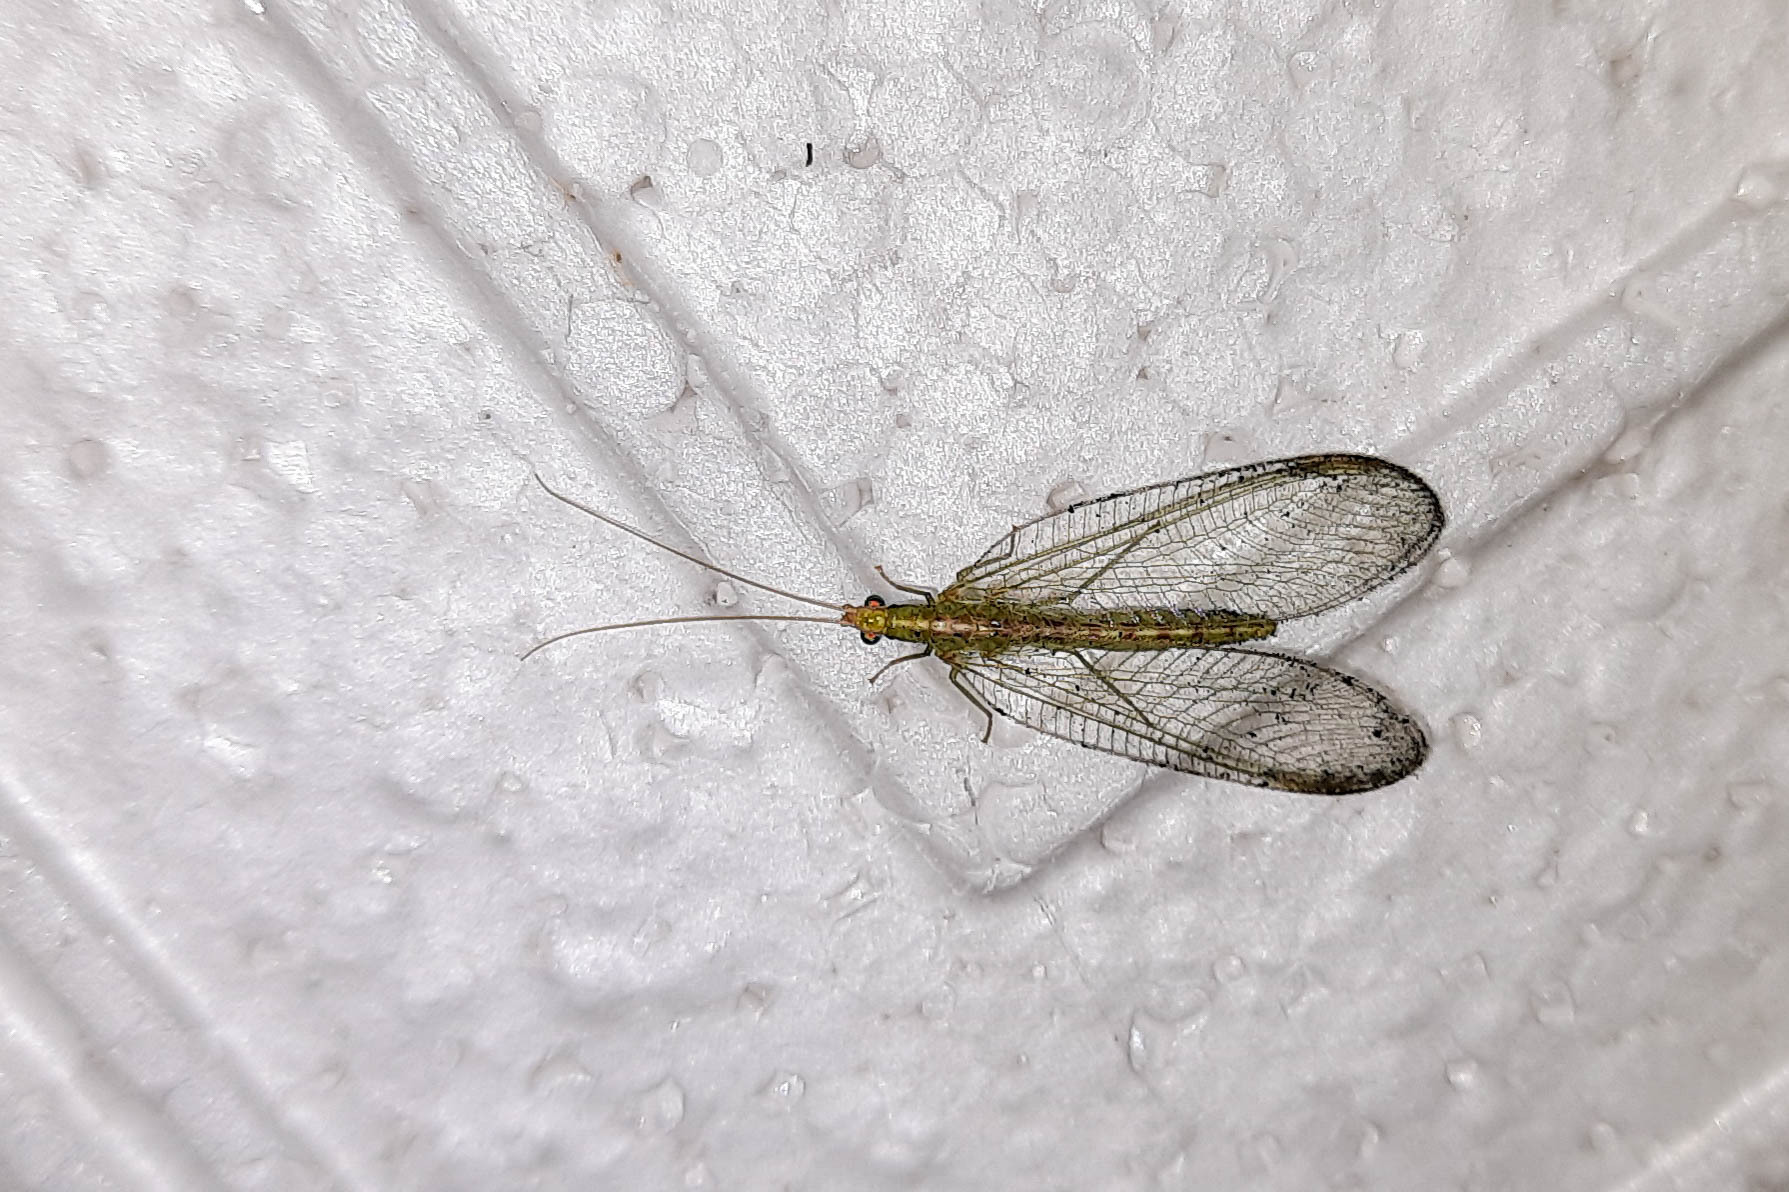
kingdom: Animalia
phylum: Arthropoda
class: Insecta
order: Neuroptera
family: Chrysopidae
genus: Chrysoperla
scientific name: Chrysoperla
